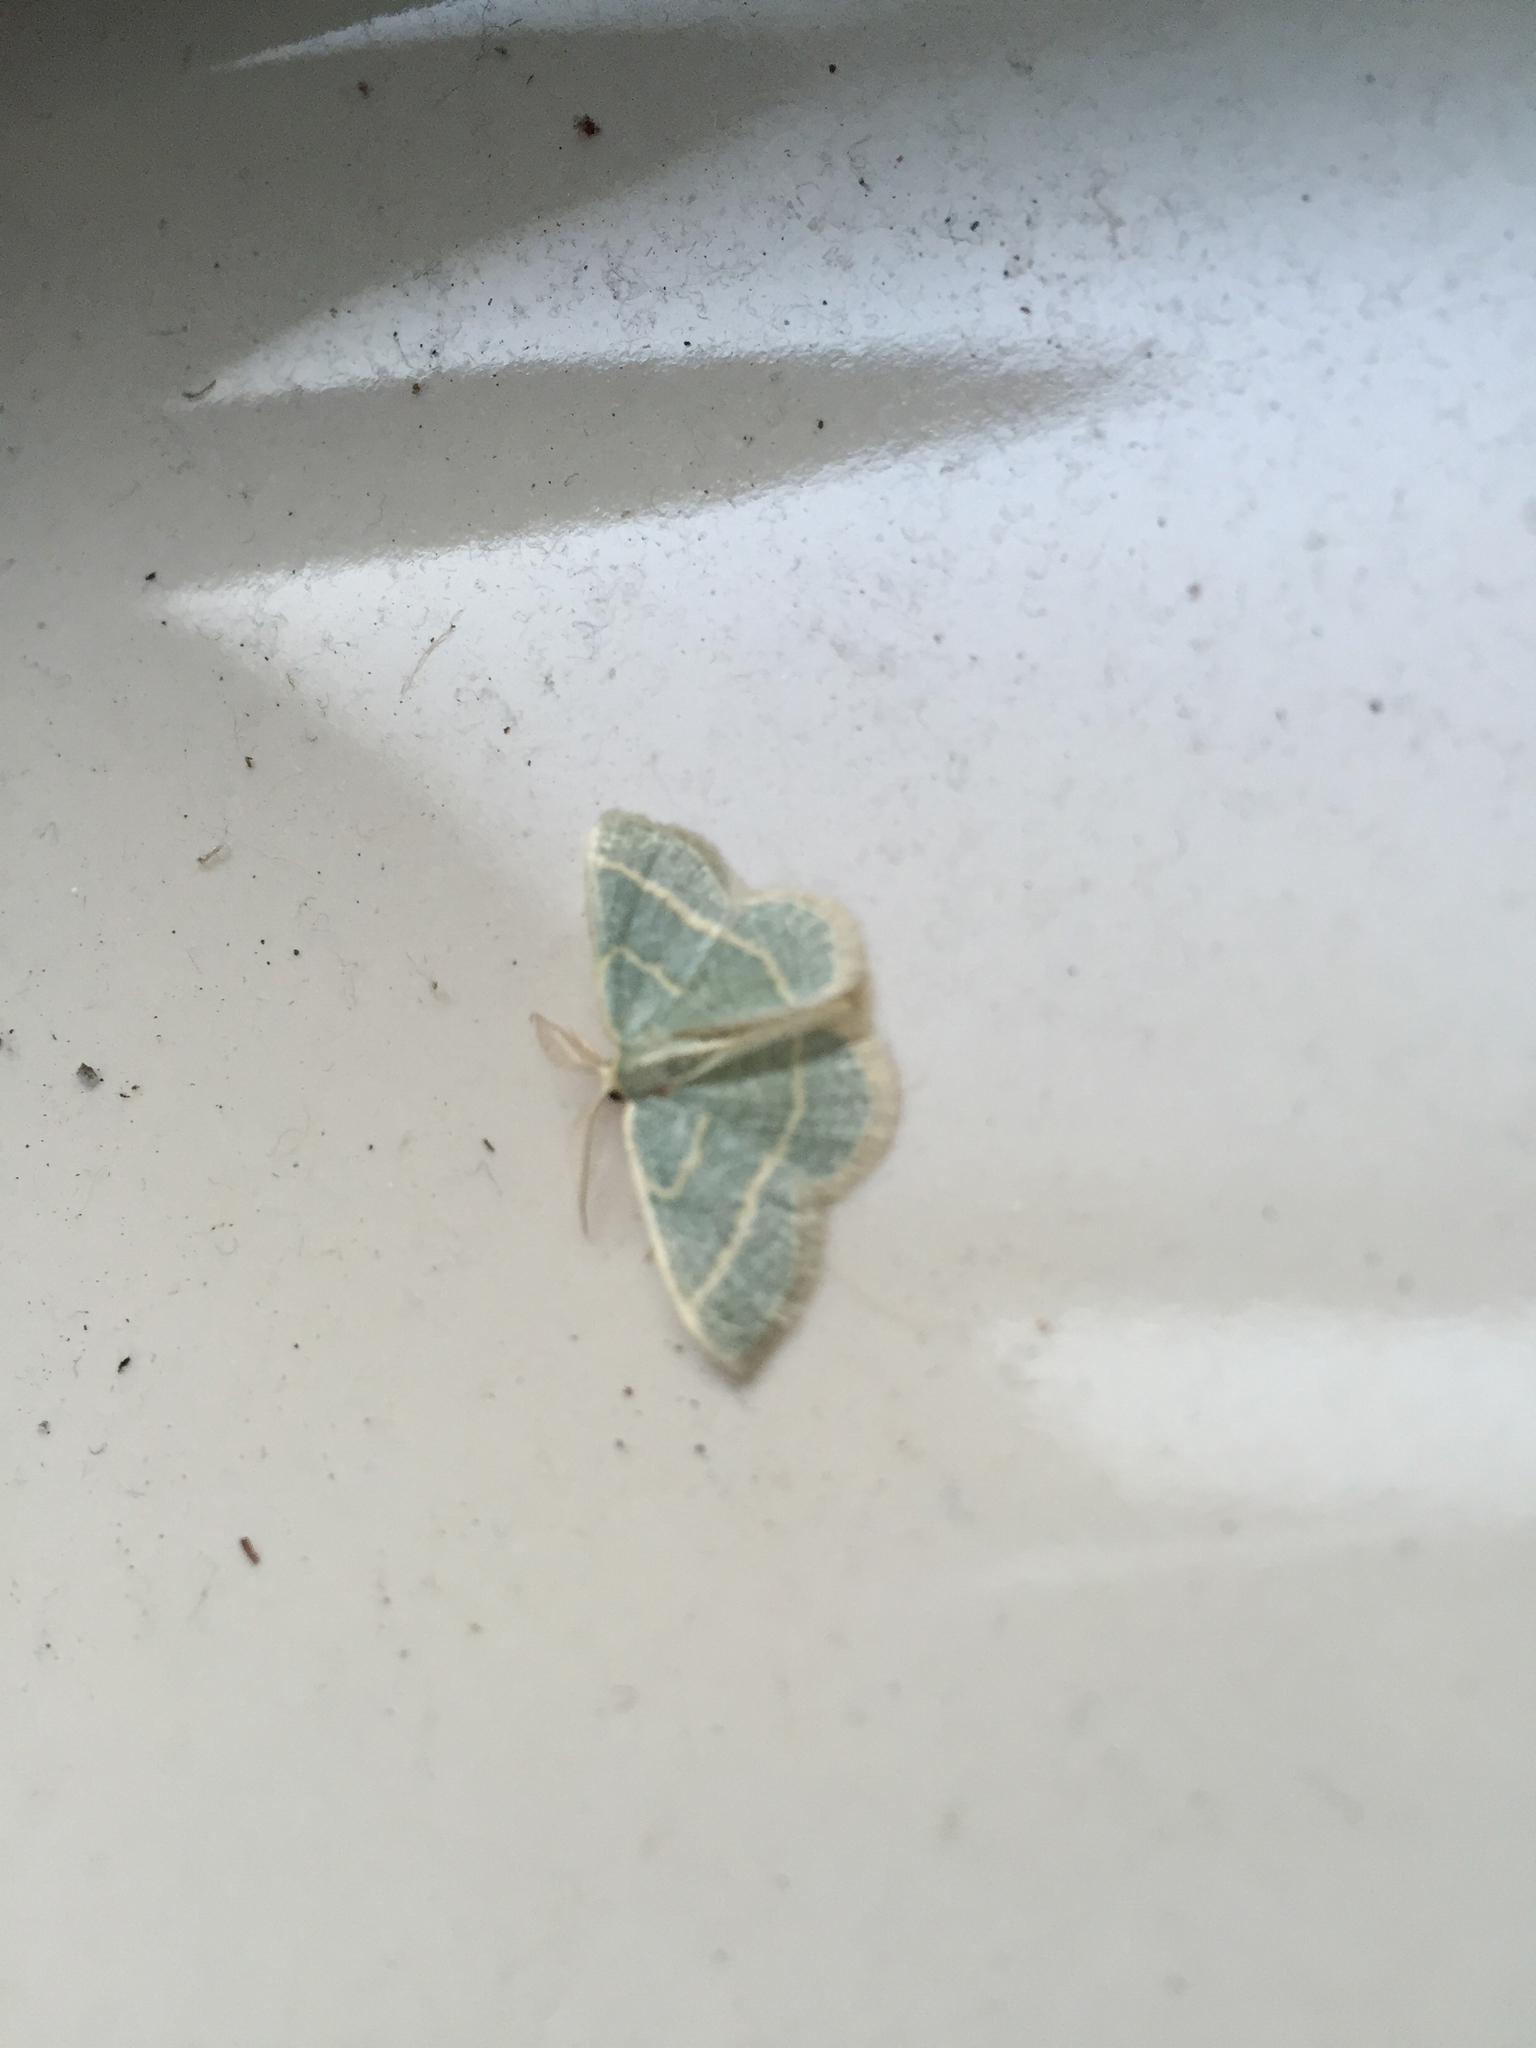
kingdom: Animalia
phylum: Arthropoda
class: Insecta
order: Lepidoptera
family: Geometridae
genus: Chlorochlamys
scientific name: Chlorochlamys chloroleucaria
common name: Blackberry looper
